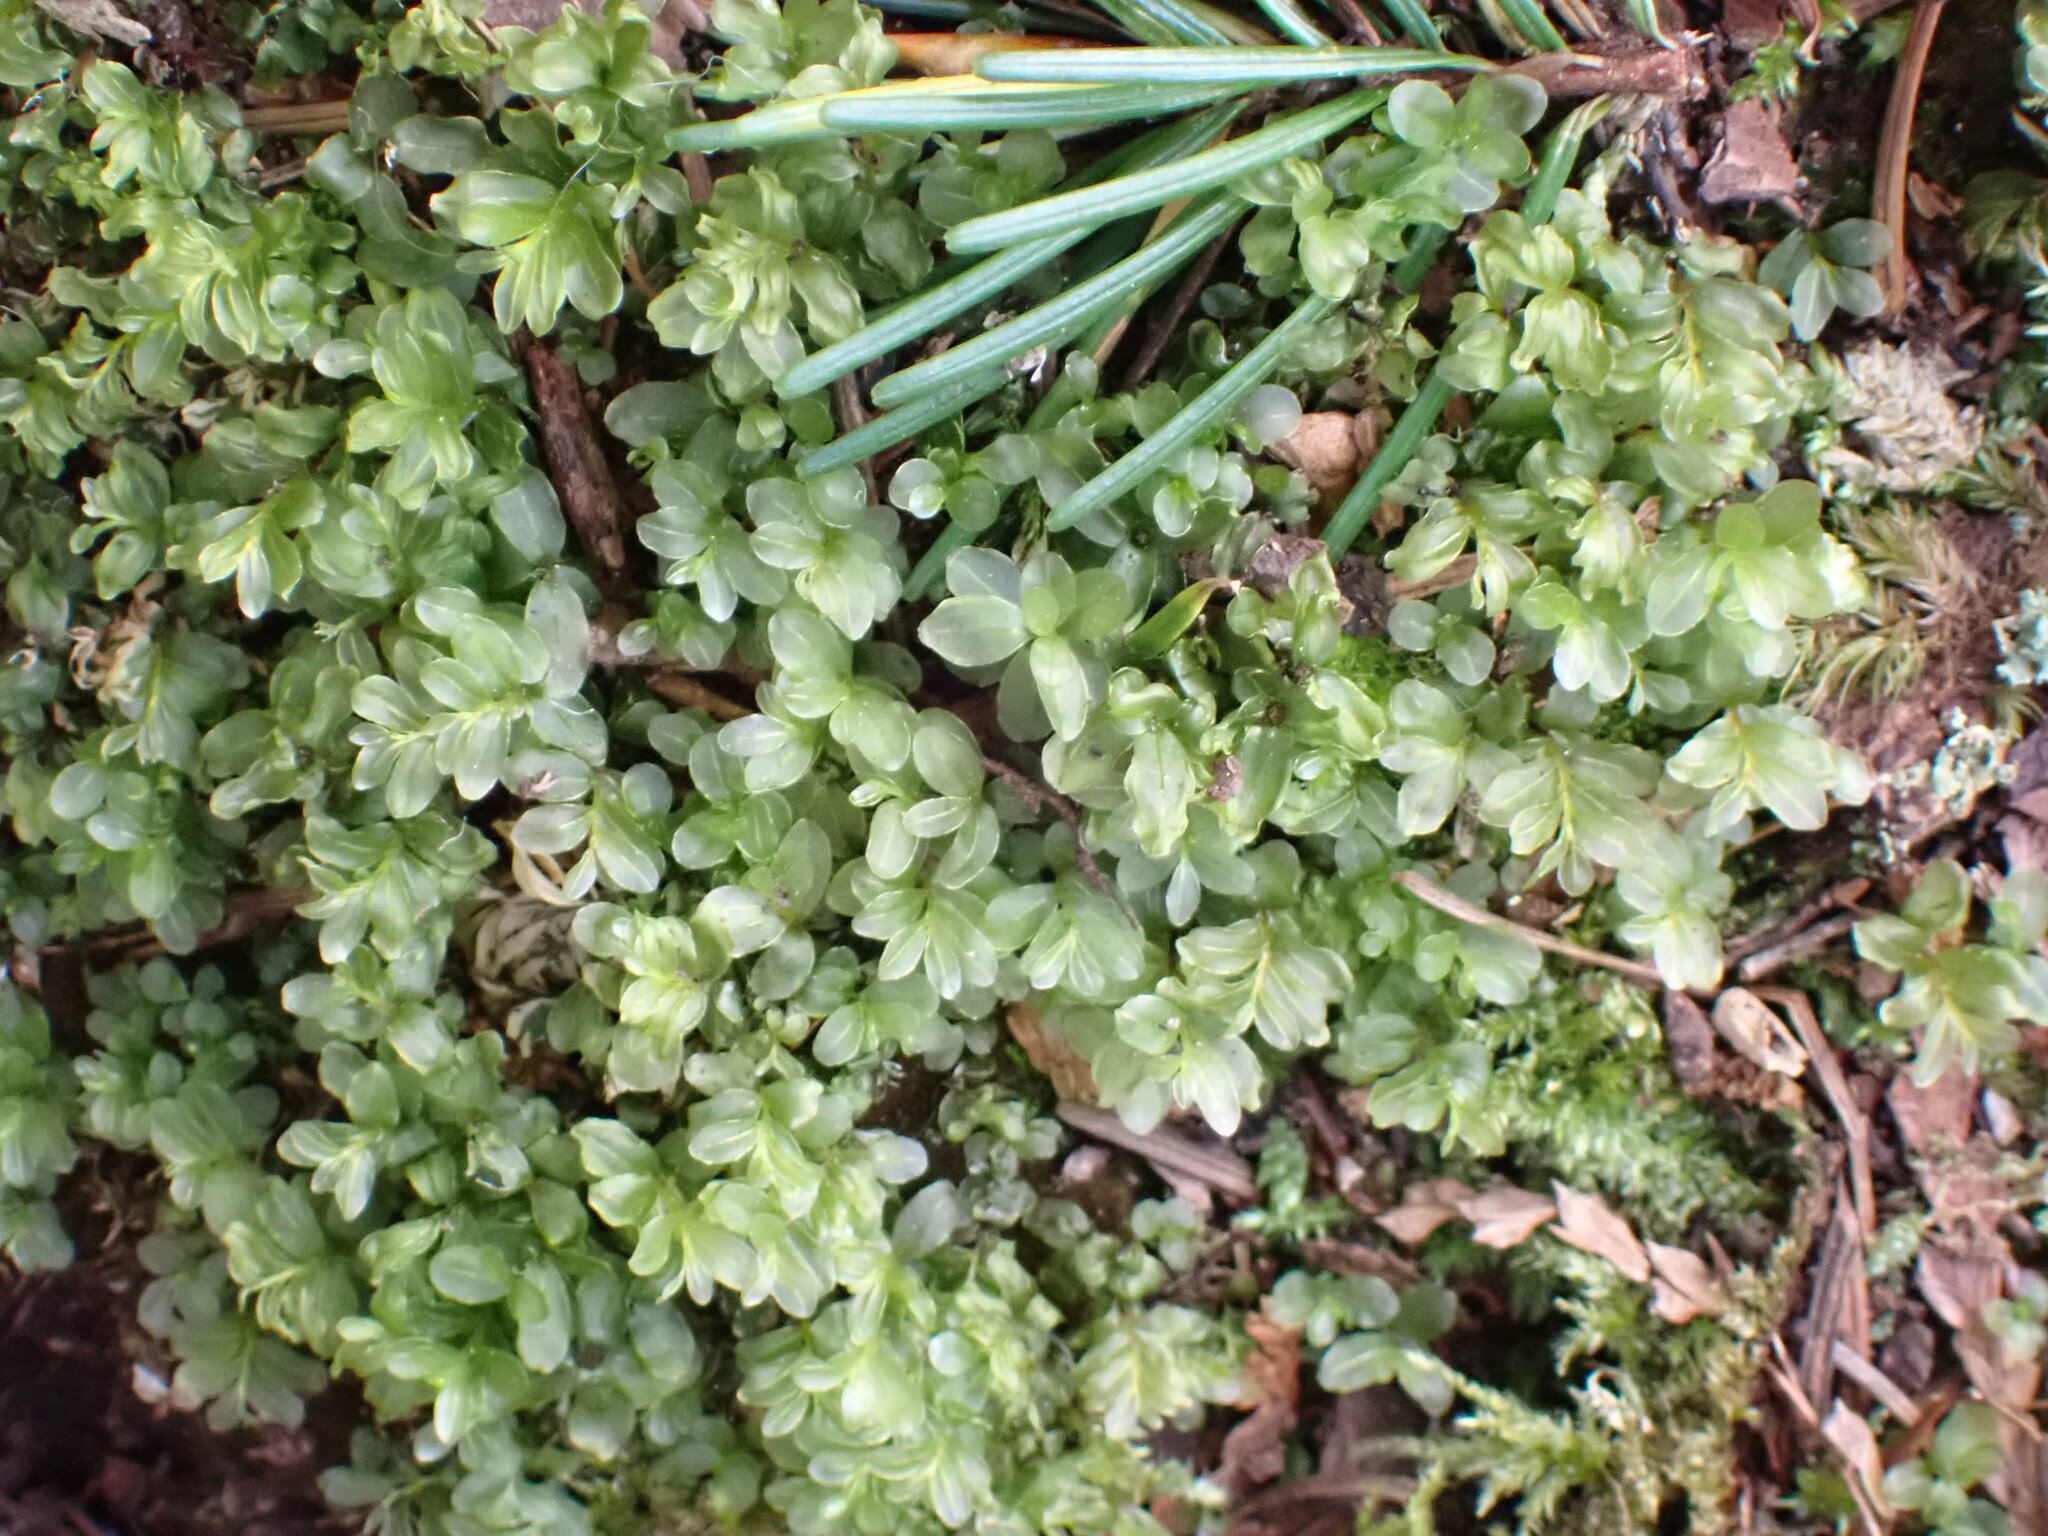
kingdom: Plantae
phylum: Bryophyta
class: Bryopsida
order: Bryales
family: Mniaceae
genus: Rhizomnium
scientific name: Rhizomnium glabrescens
